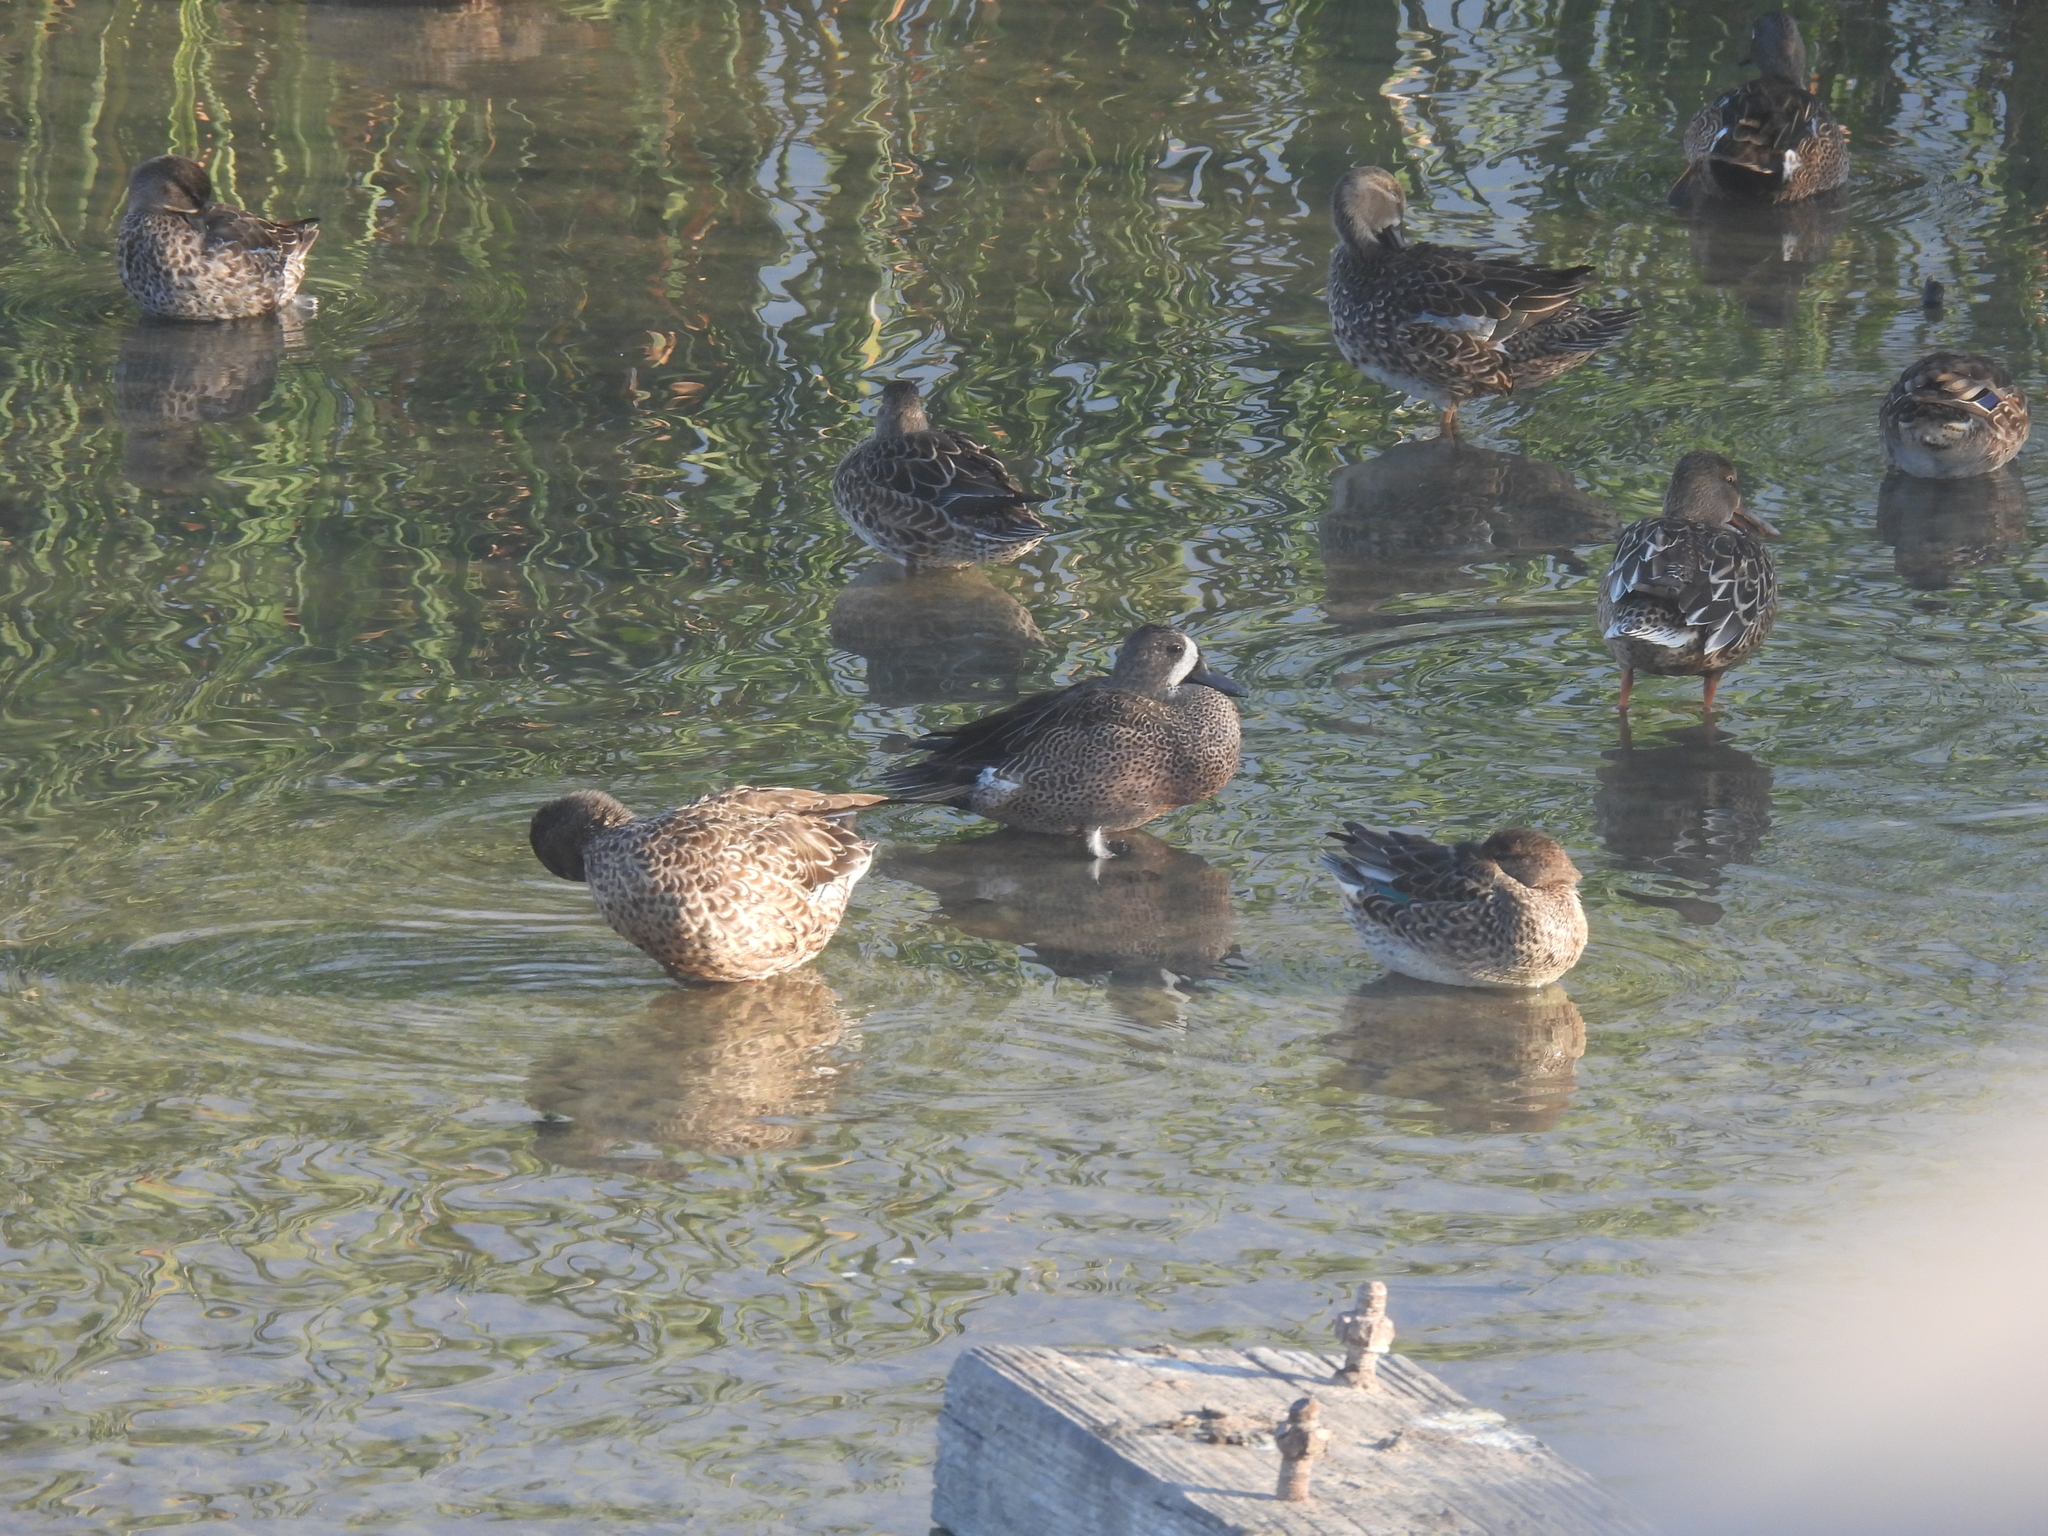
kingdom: Animalia
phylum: Chordata
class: Aves
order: Anseriformes
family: Anatidae
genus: Spatula
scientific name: Spatula discors
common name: Blue-winged teal
